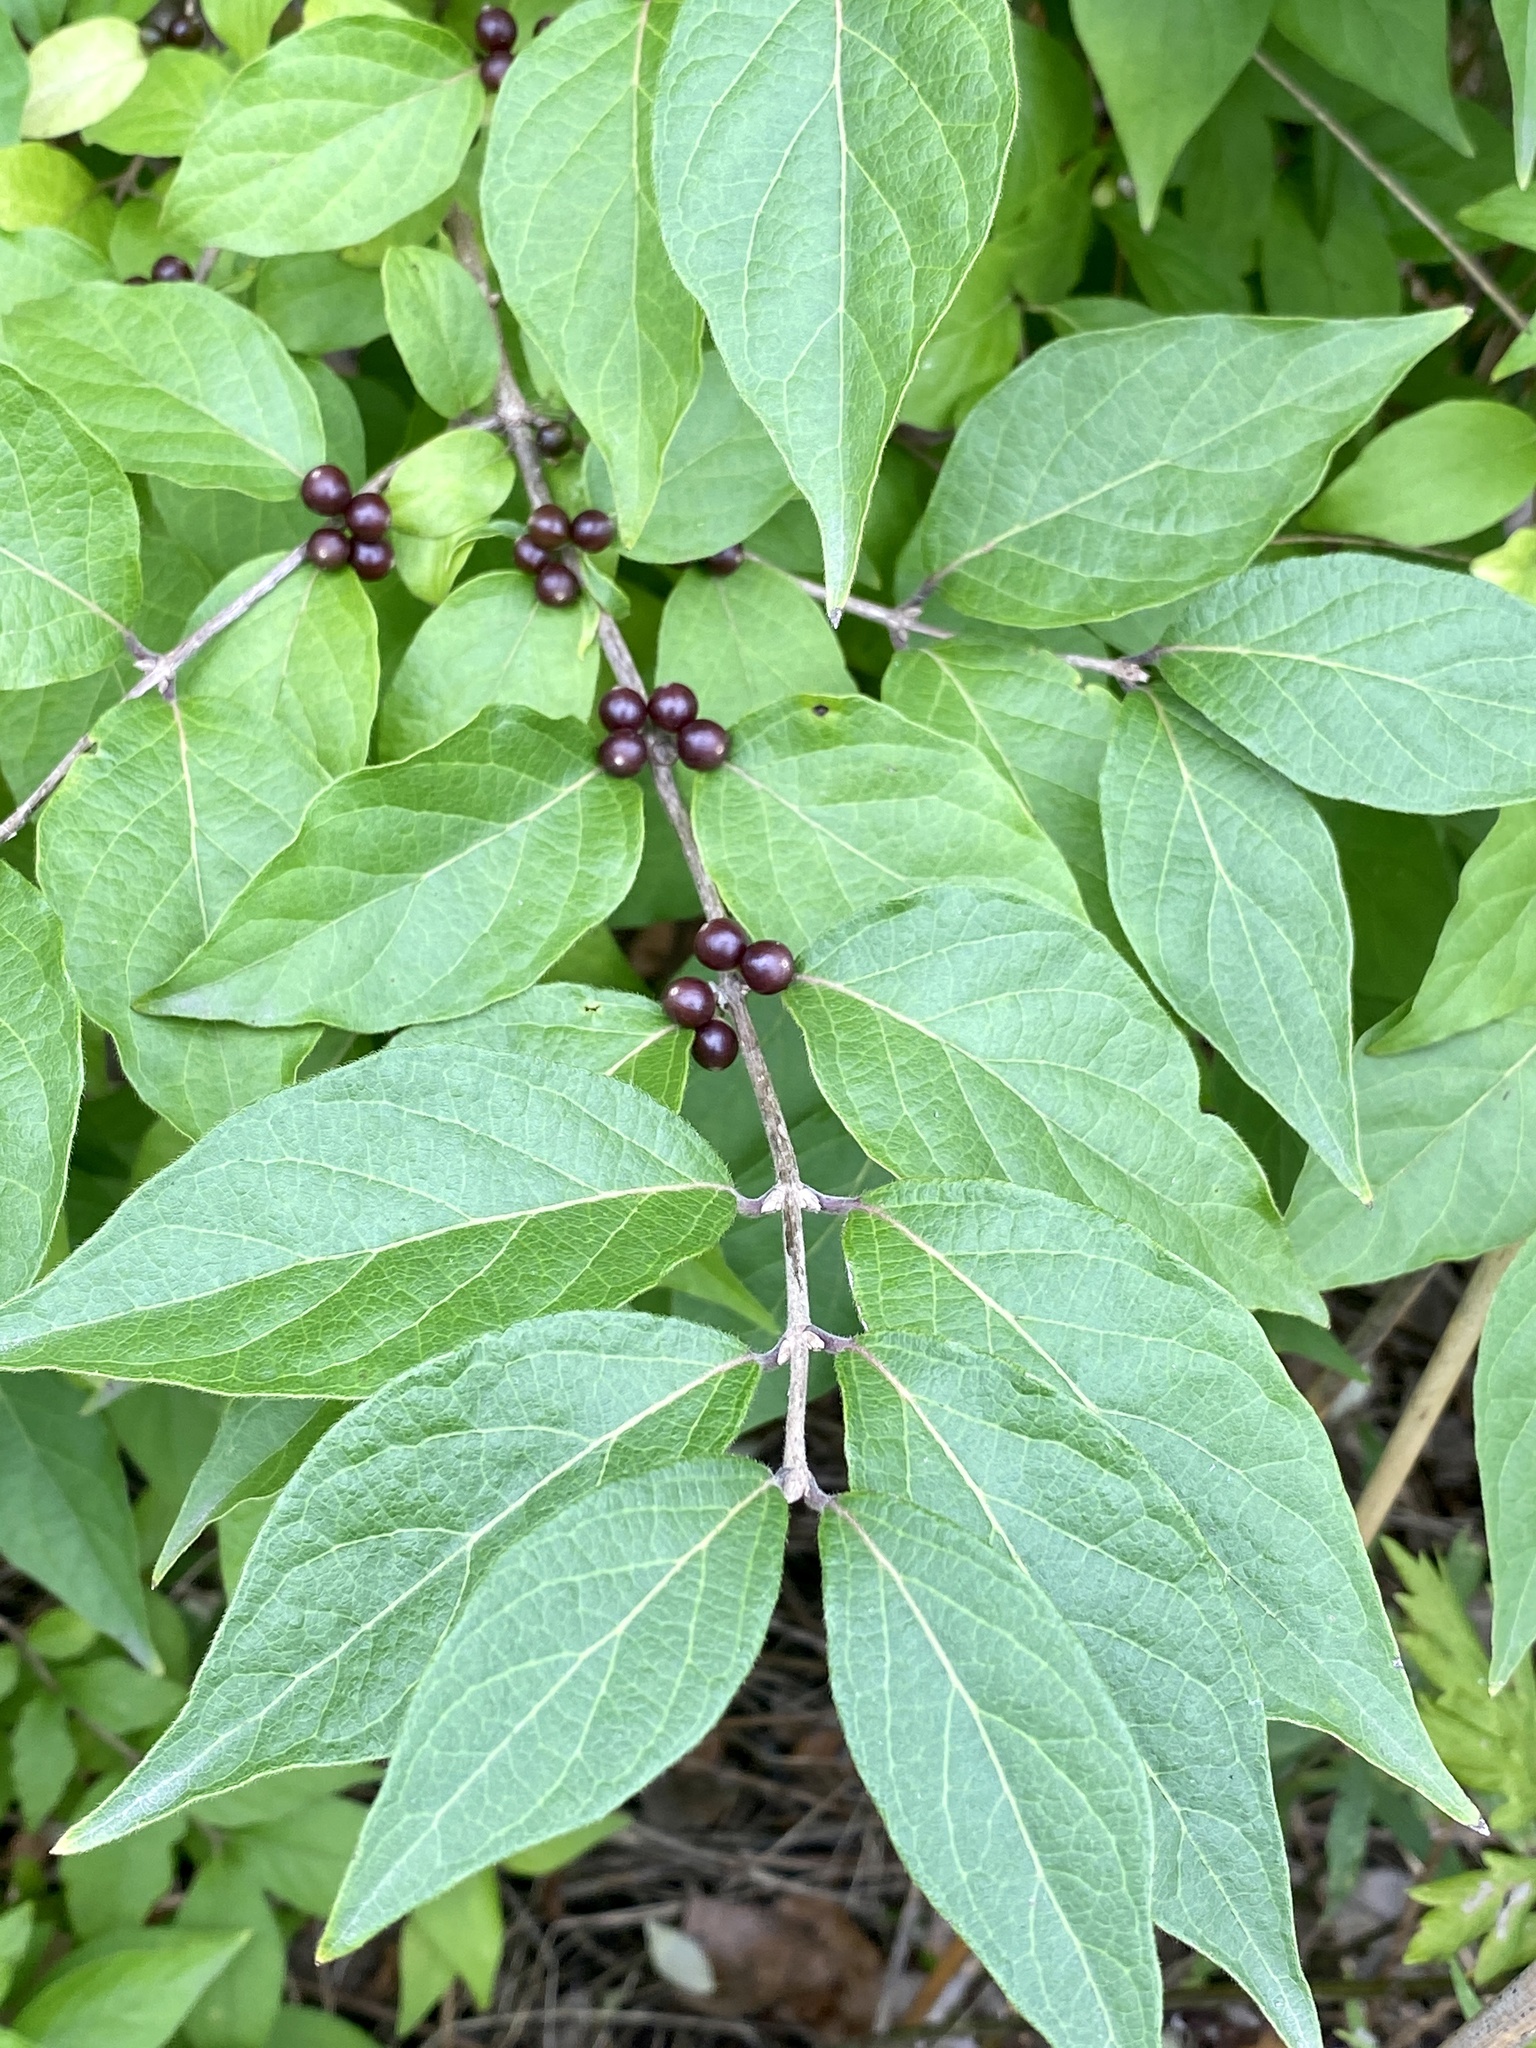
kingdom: Plantae
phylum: Tracheophyta
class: Magnoliopsida
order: Dipsacales
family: Caprifoliaceae
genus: Lonicera
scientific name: Lonicera maackii
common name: Amur honeysuckle
